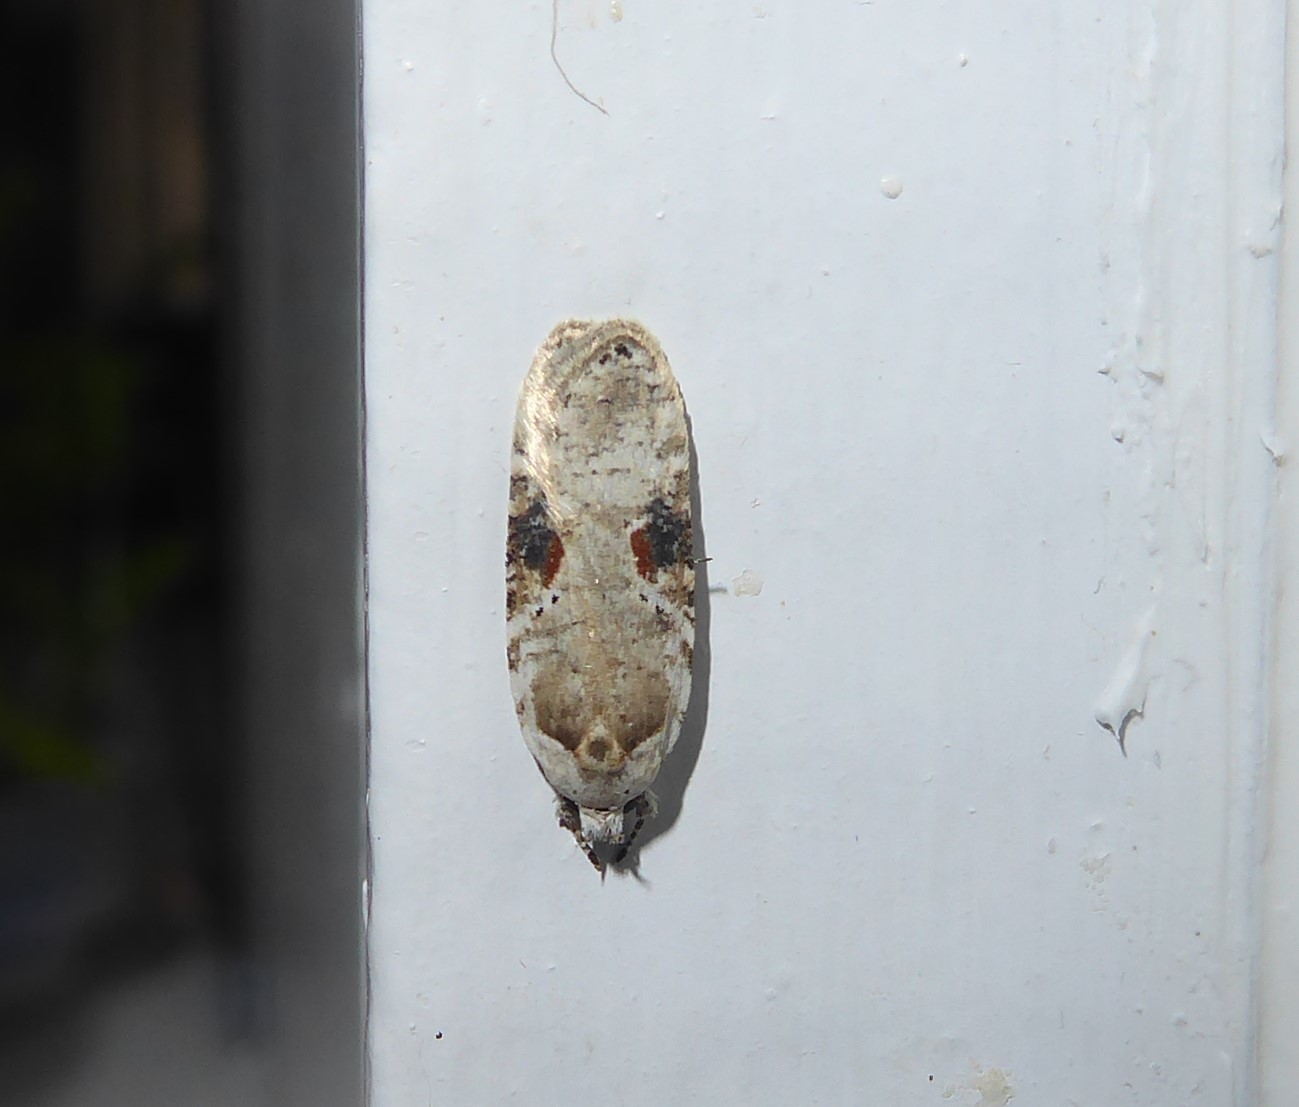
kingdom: Animalia
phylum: Arthropoda
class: Insecta
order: Lepidoptera
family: Depressariidae
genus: Agonopterix
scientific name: Agonopterix alstroemeriana
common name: Moth
